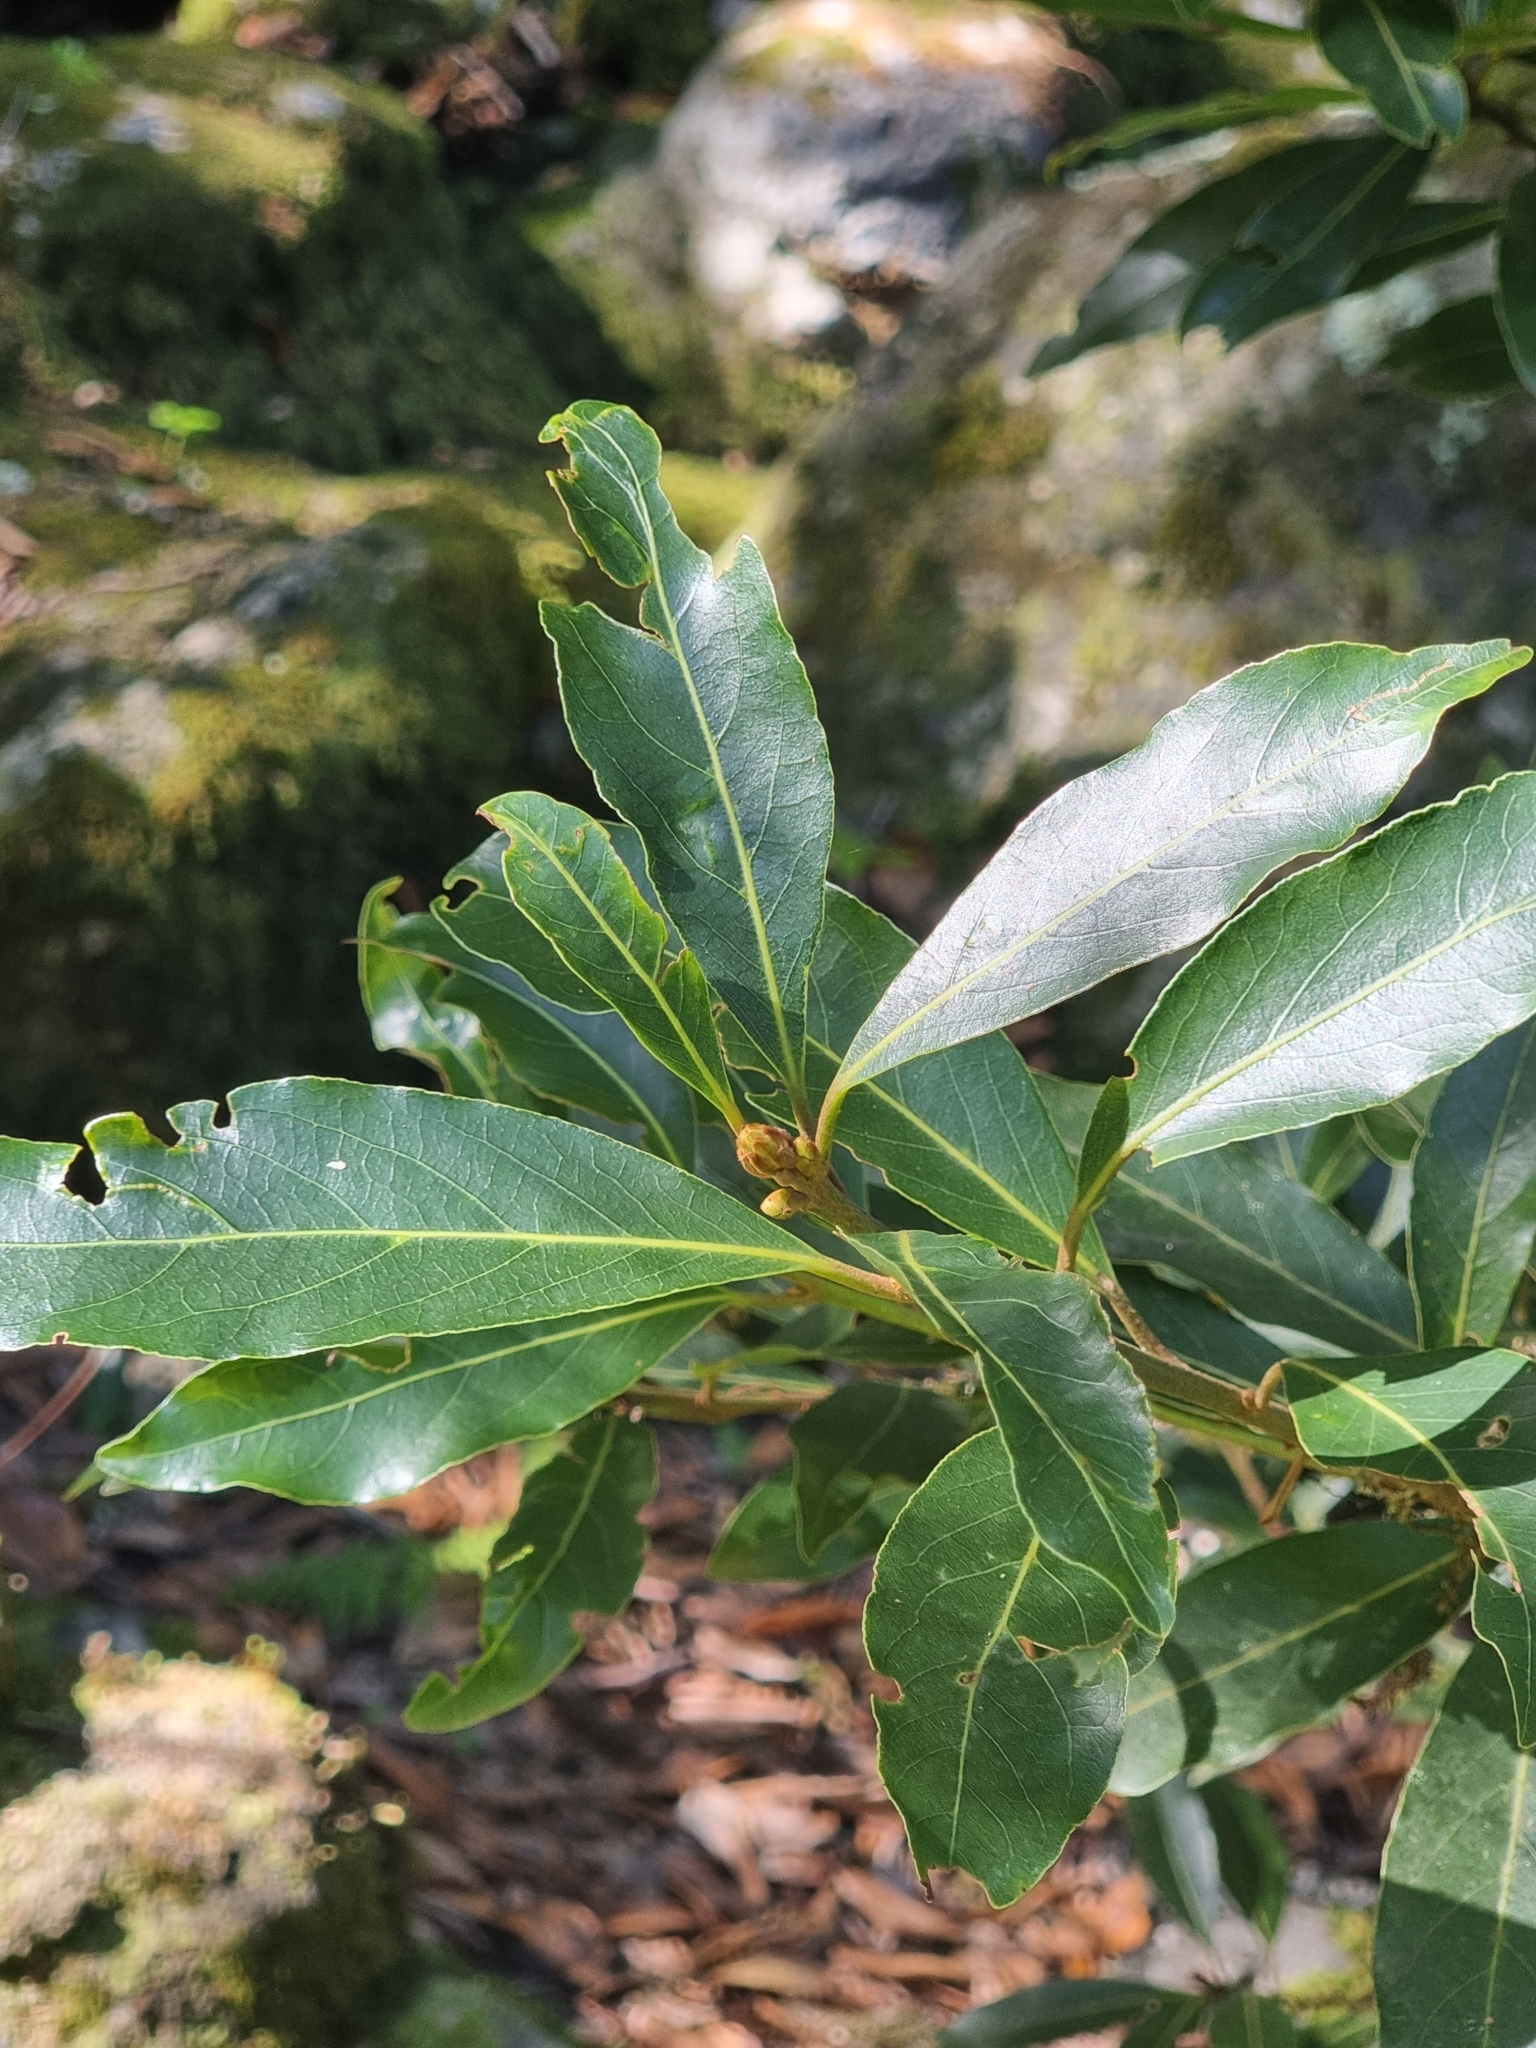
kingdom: Plantae
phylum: Tracheophyta
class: Magnoliopsida
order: Laurales
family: Lauraceae
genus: Laurus
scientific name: Laurus novocanariensis
